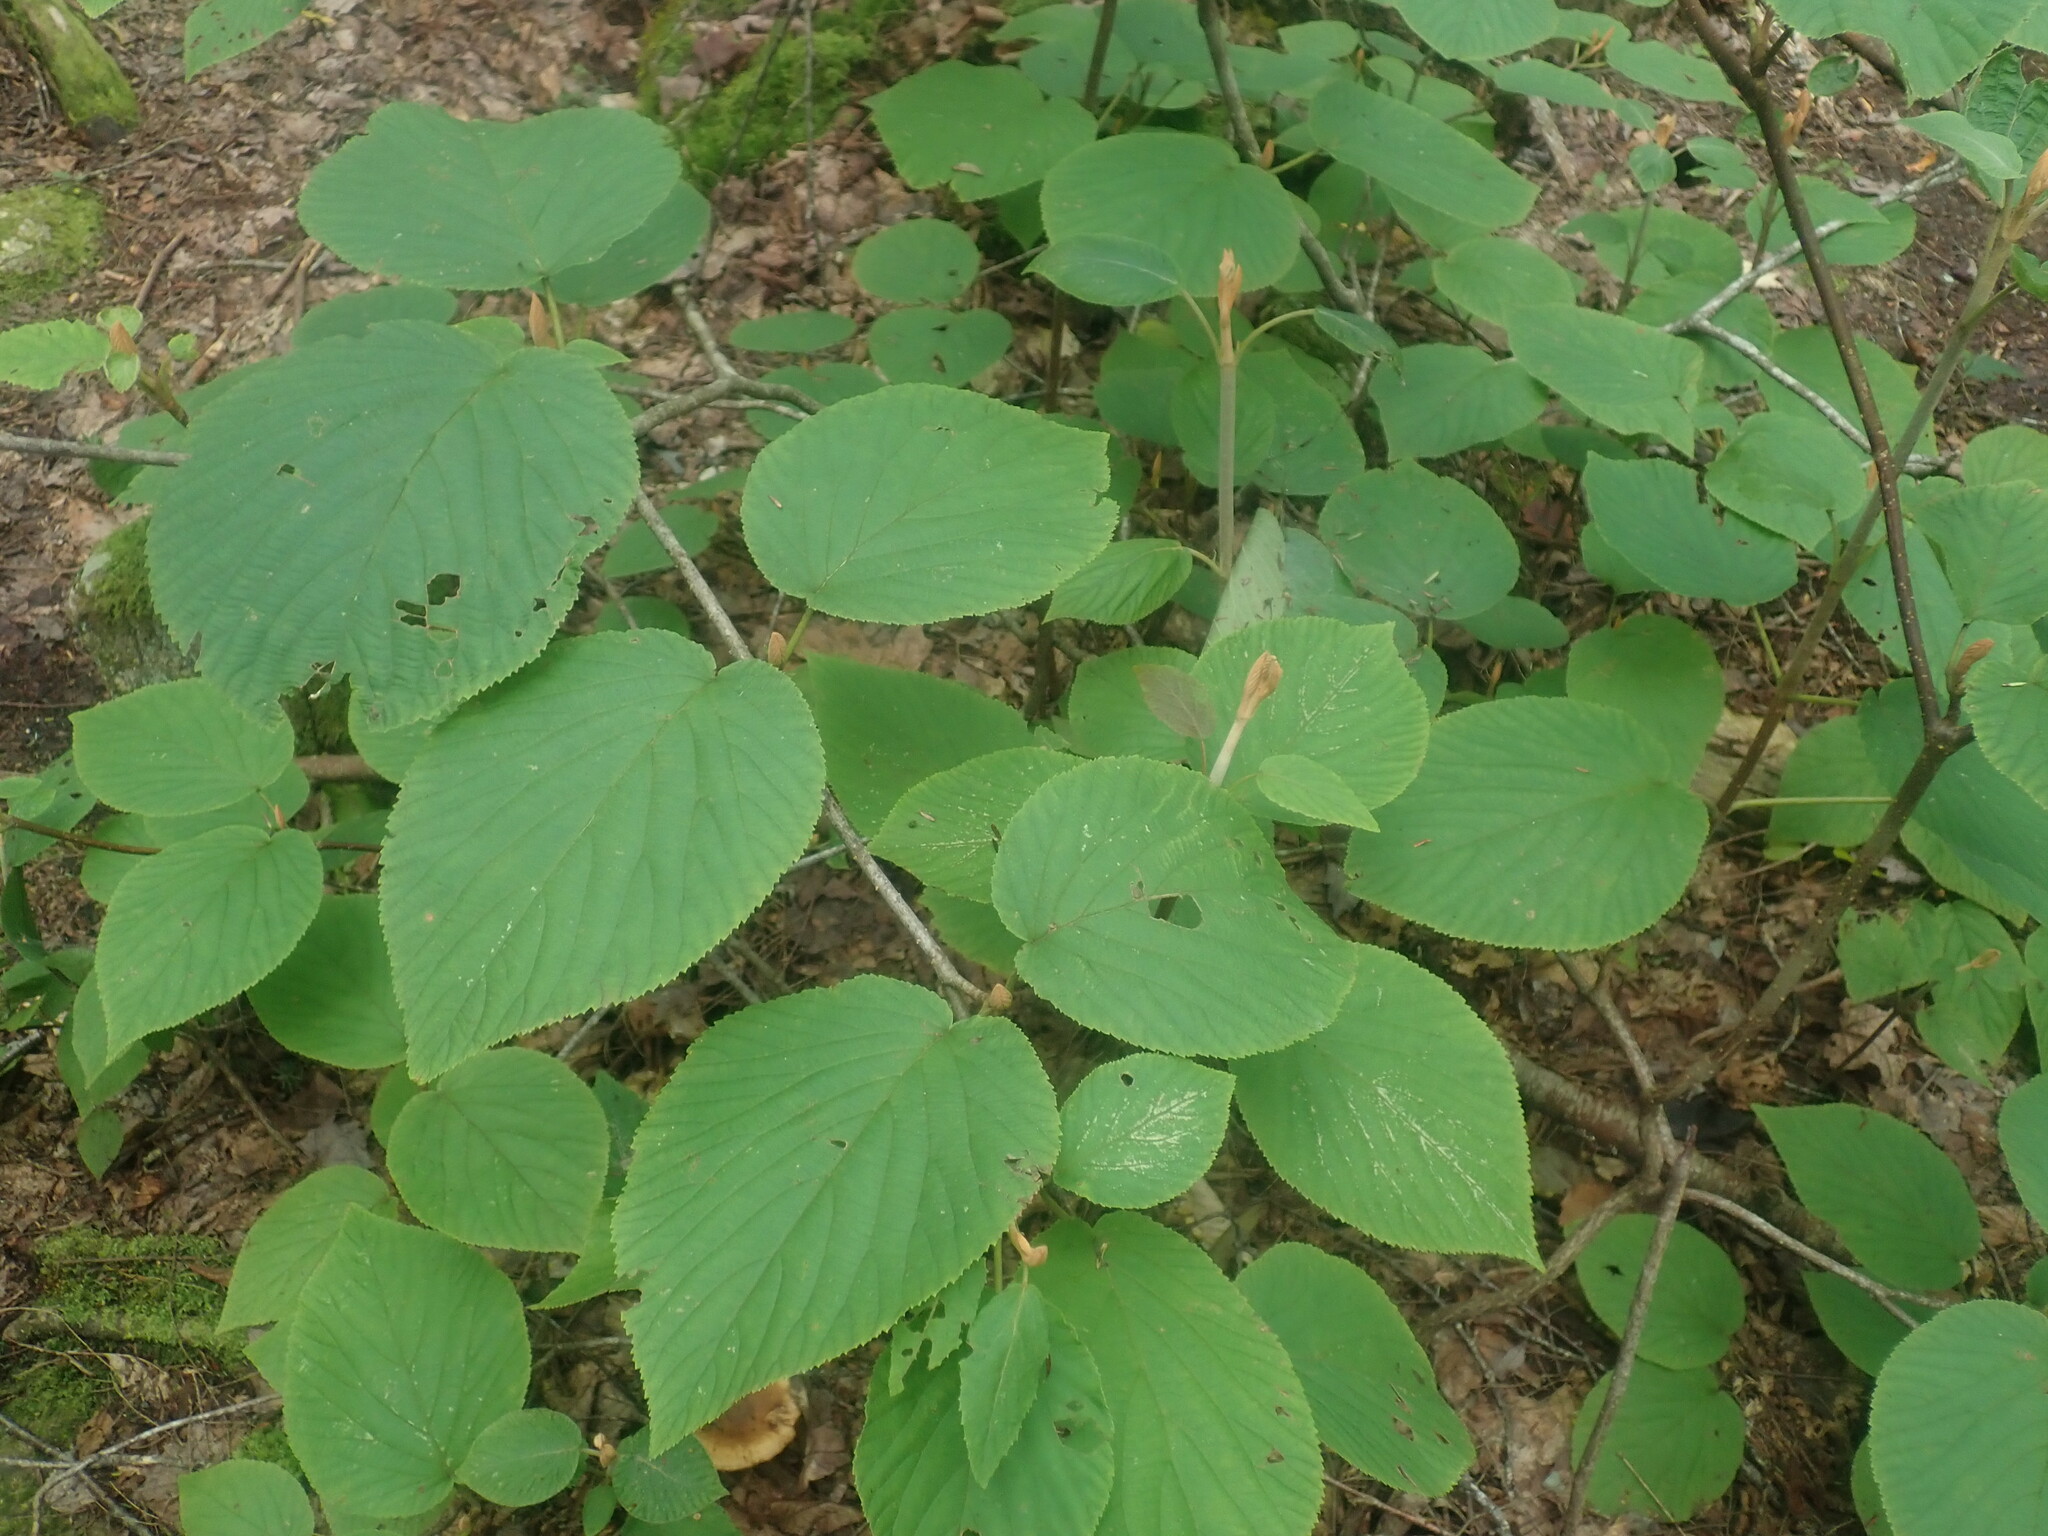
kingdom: Plantae
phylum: Tracheophyta
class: Magnoliopsida
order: Dipsacales
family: Viburnaceae
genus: Viburnum
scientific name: Viburnum lantanoides
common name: Hobblebush
